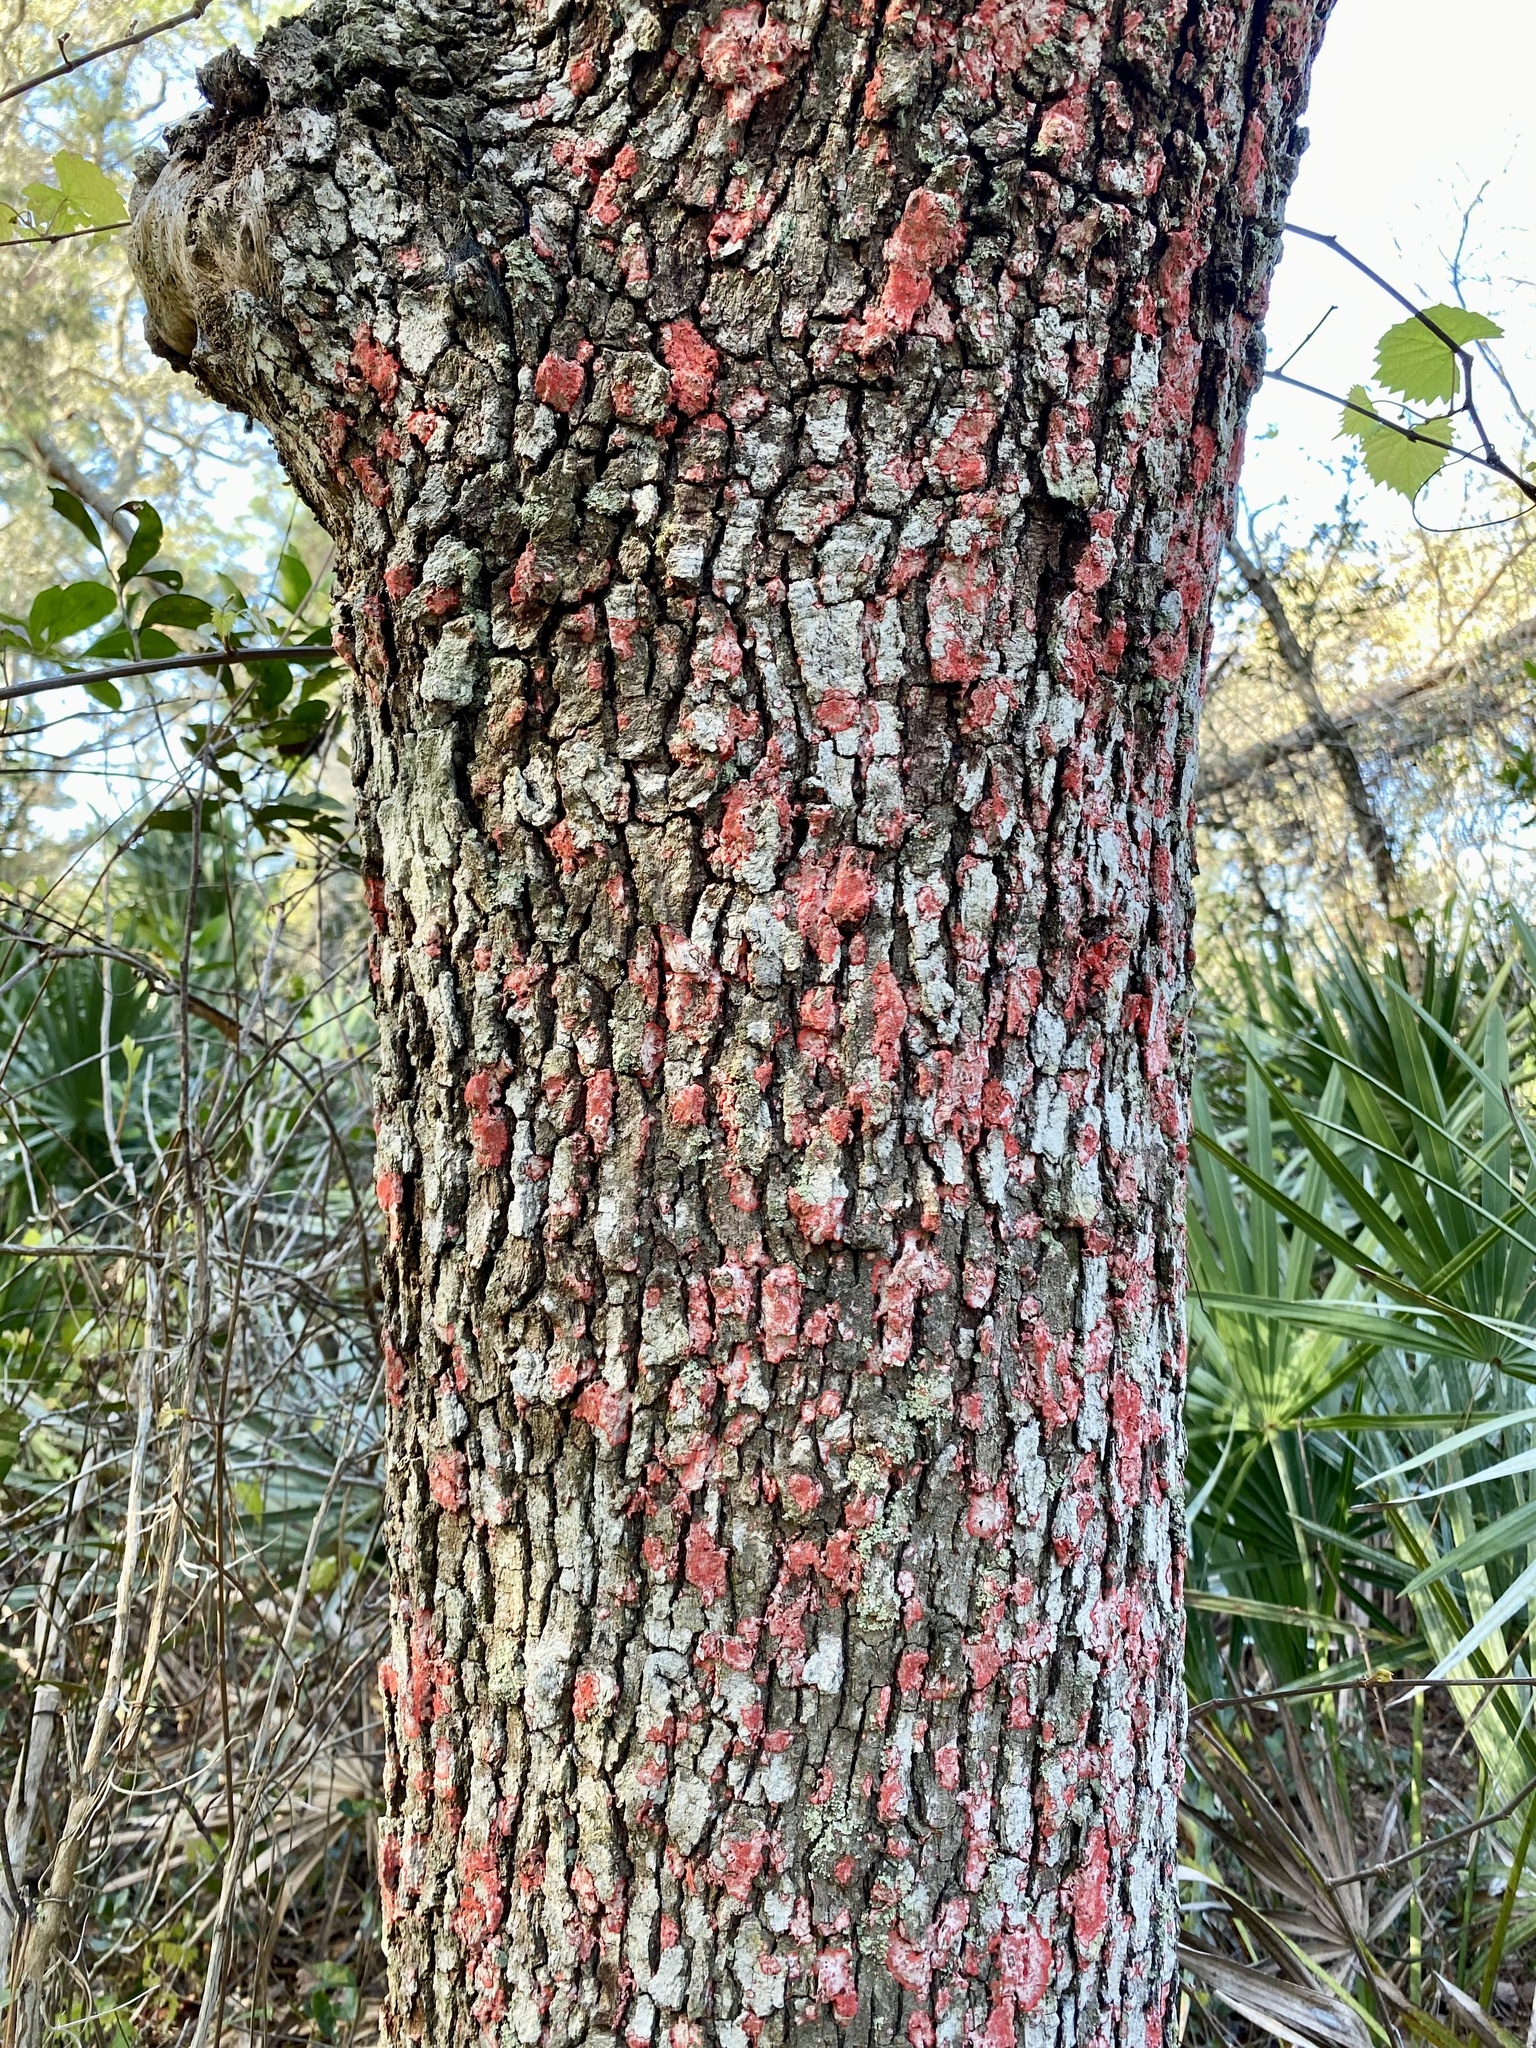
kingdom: Fungi
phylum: Ascomycota
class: Arthoniomycetes
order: Arthoniales
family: Arthoniaceae
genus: Herpothallon
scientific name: Herpothallon rubrocinctum
